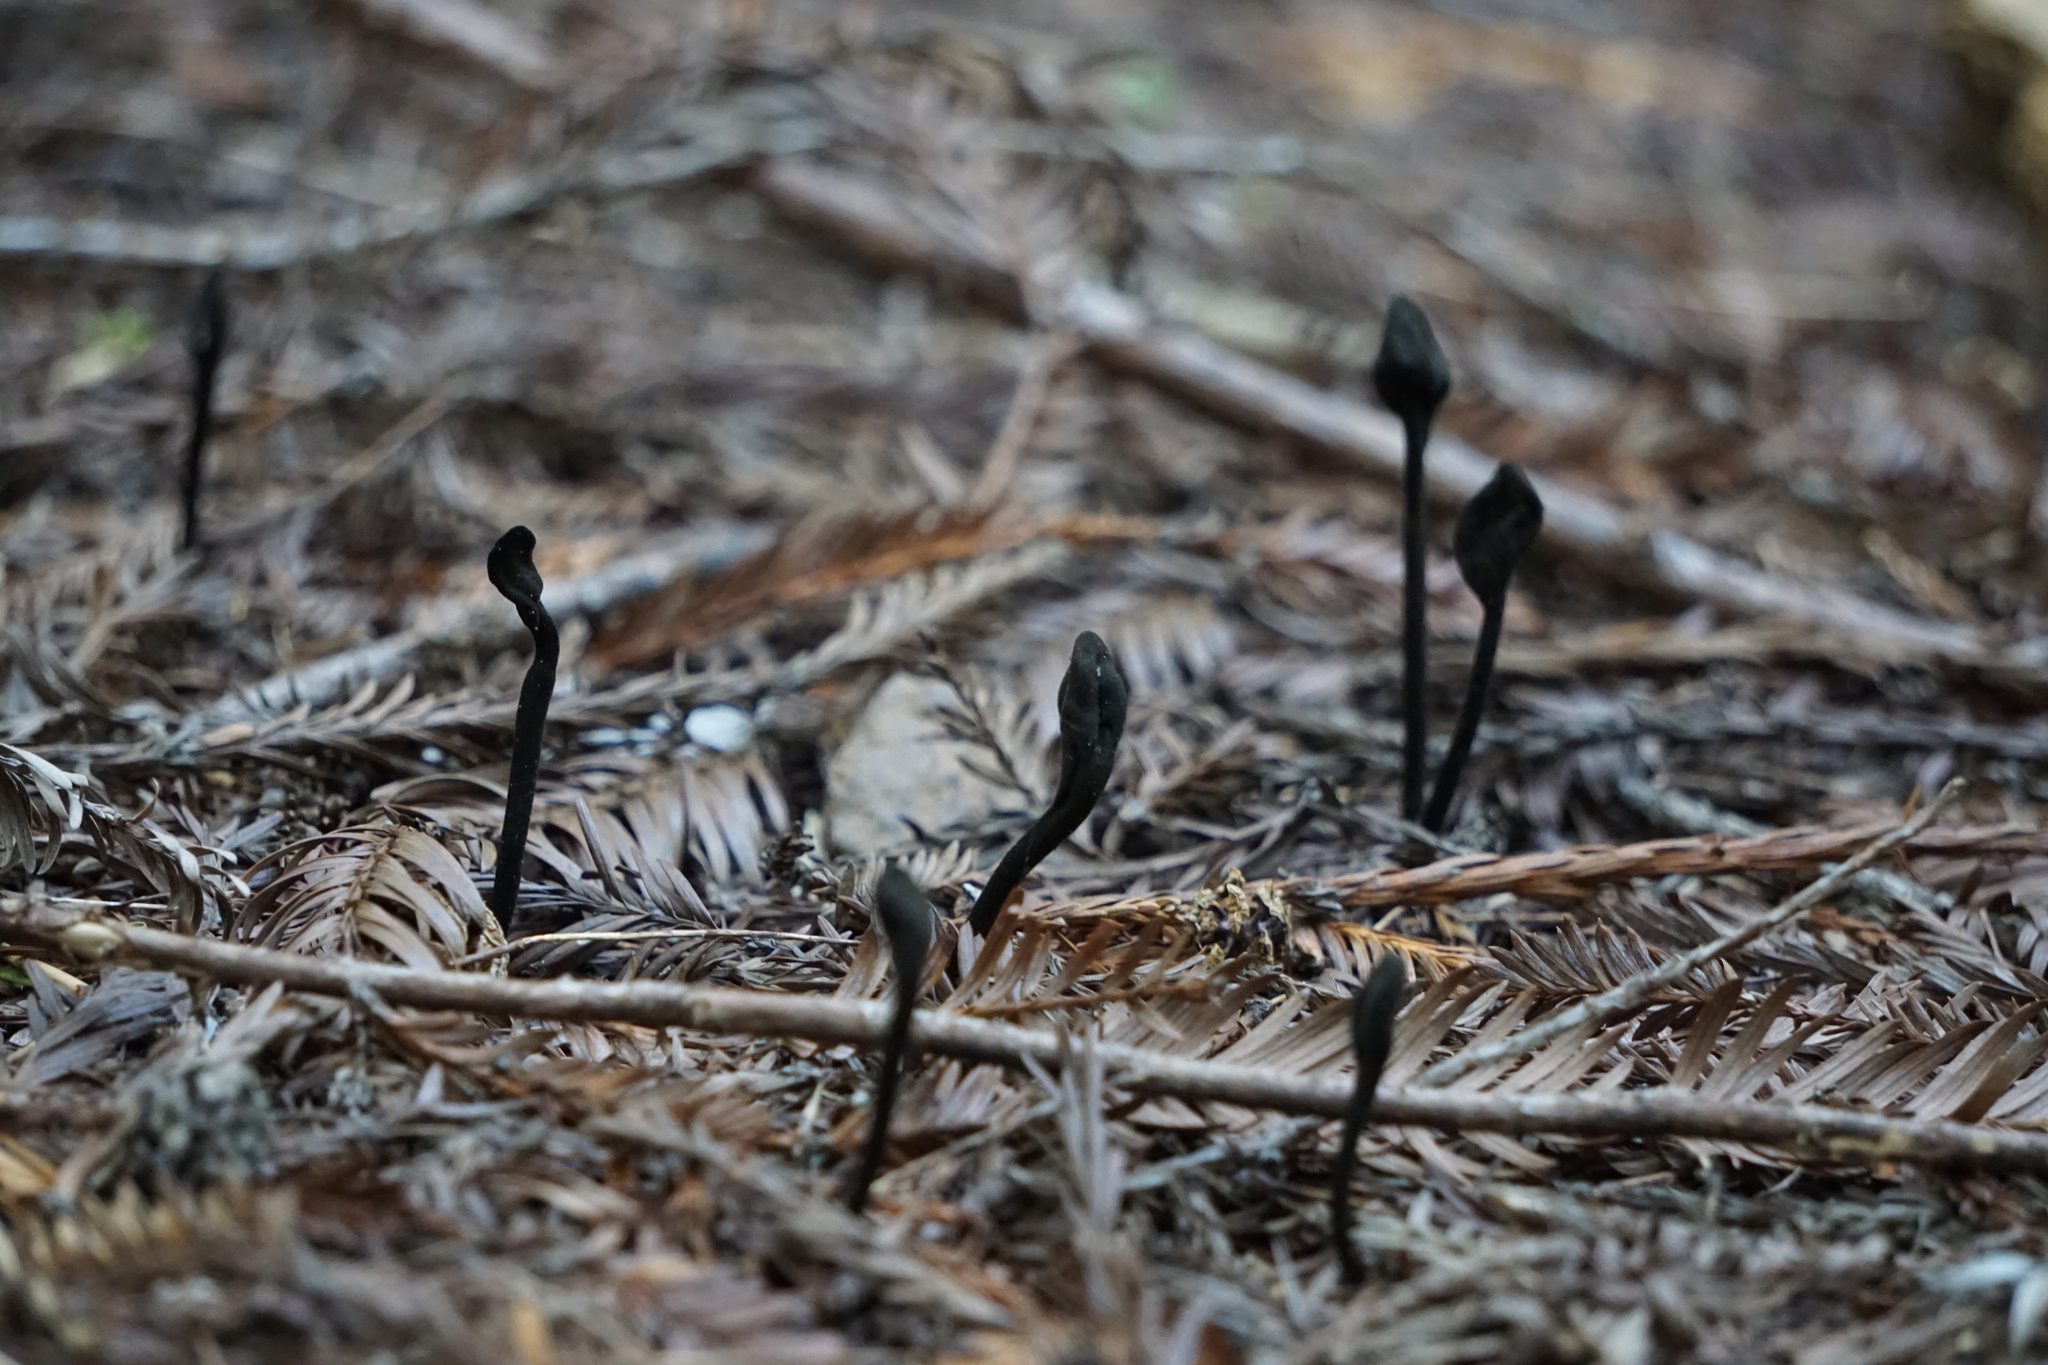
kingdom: Fungi
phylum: Ascomycota
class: Geoglossomycetes
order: Geoglossales
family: Geoglossaceae
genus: Trichoglossum
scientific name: Trichoglossum hirsutum
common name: Hairy earthtongue
